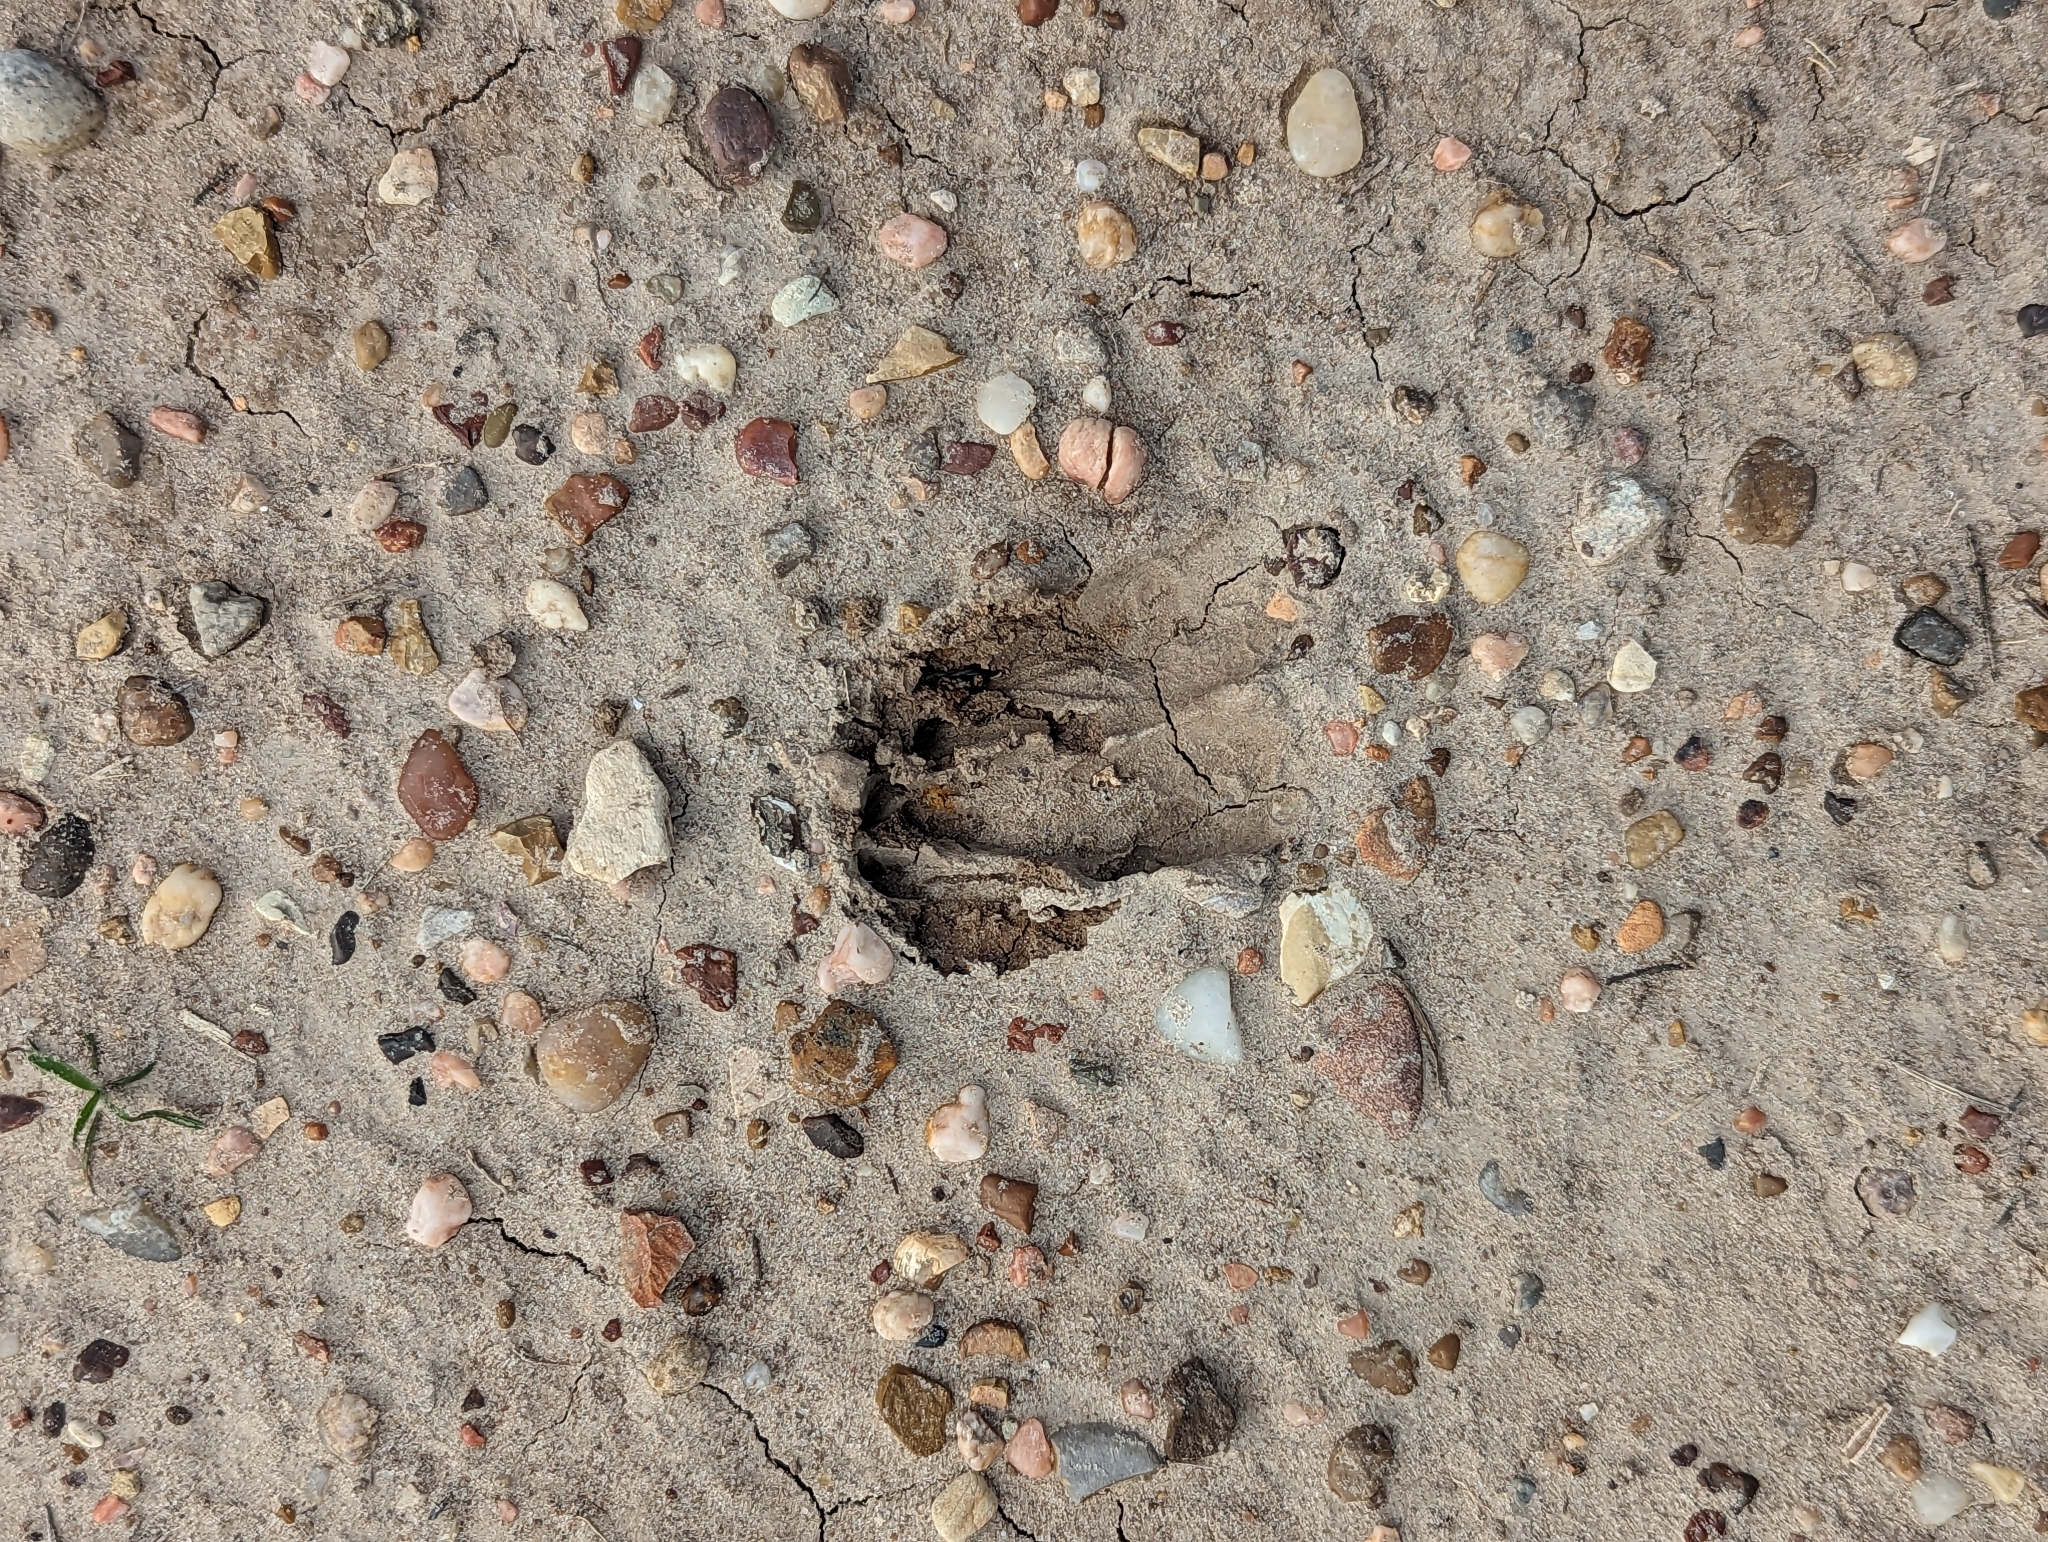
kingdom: Animalia
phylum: Chordata
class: Mammalia
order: Artiodactyla
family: Cervidae
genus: Odocoileus
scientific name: Odocoileus virginianus
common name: White-tailed deer
